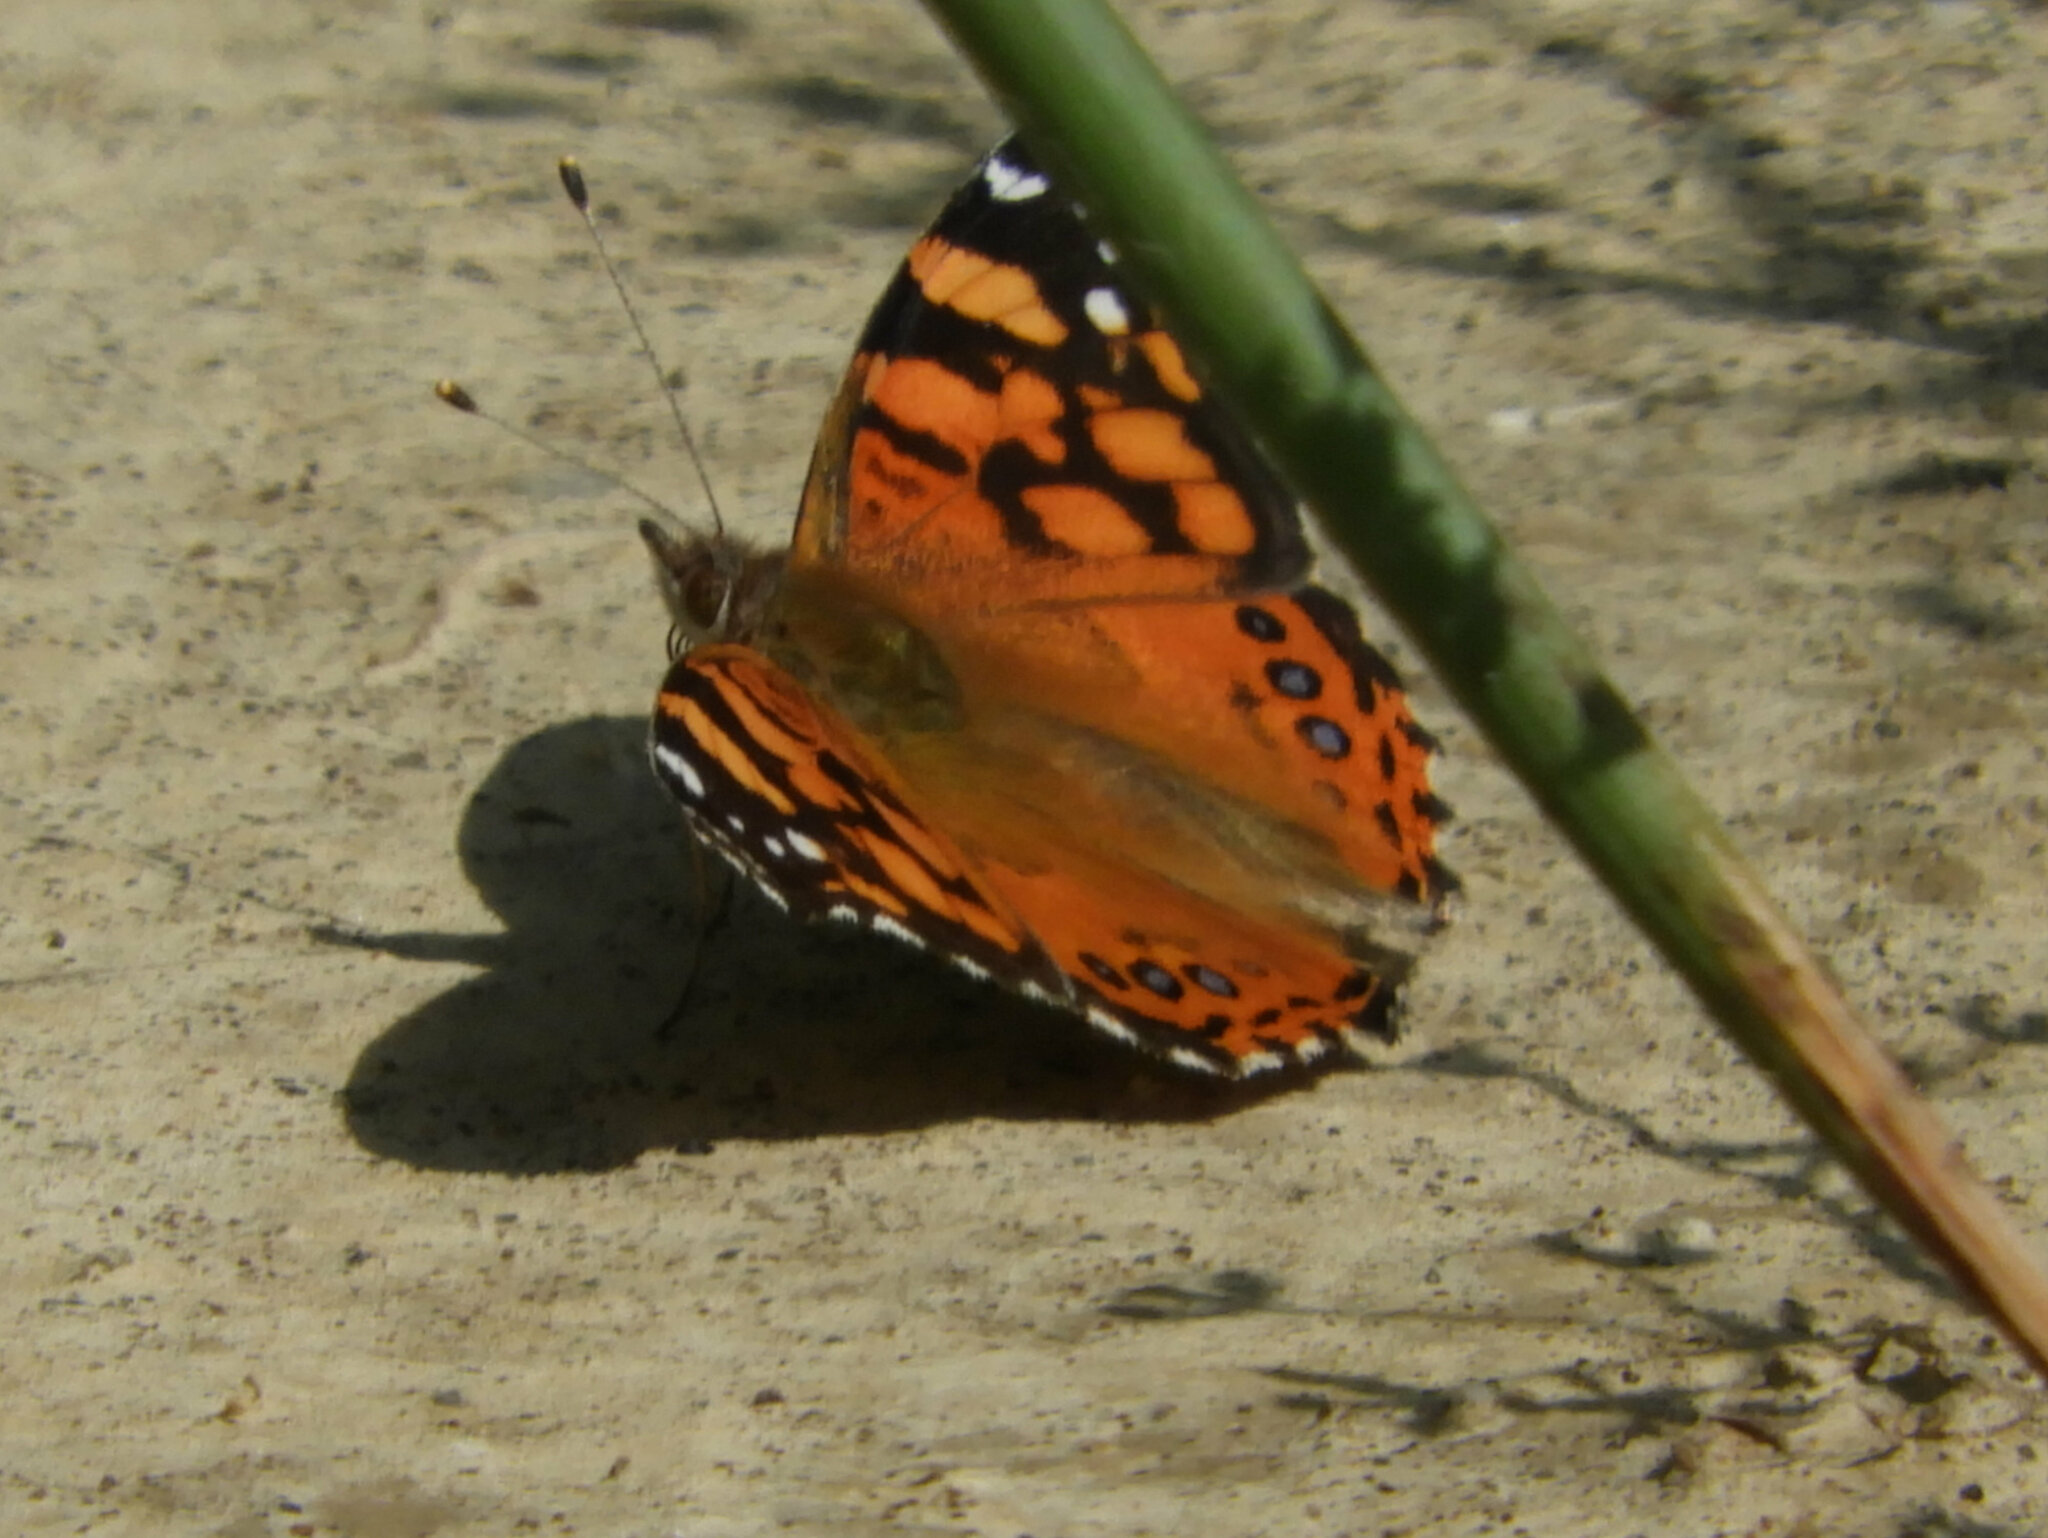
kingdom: Animalia
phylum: Arthropoda
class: Insecta
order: Lepidoptera
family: Nymphalidae
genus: Vanessa
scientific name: Vanessa annabella
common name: West coast lady
